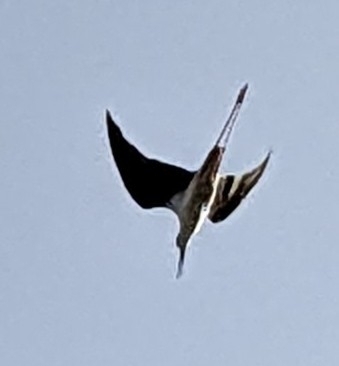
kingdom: Animalia
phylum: Chordata
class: Aves
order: Charadriiformes
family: Recurvirostridae
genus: Himantopus
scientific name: Himantopus himantopus
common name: Black-winged stilt
